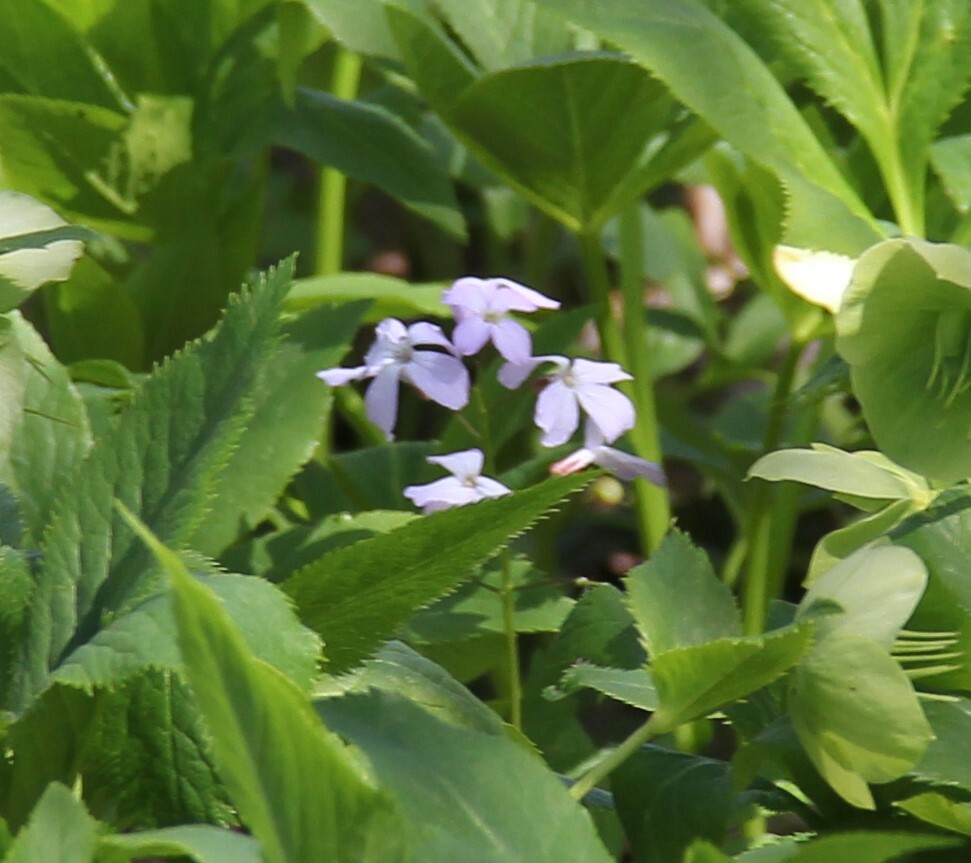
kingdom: Plantae
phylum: Tracheophyta
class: Magnoliopsida
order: Brassicales
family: Brassicaceae
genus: Cardamine
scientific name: Cardamine quinquefolia
